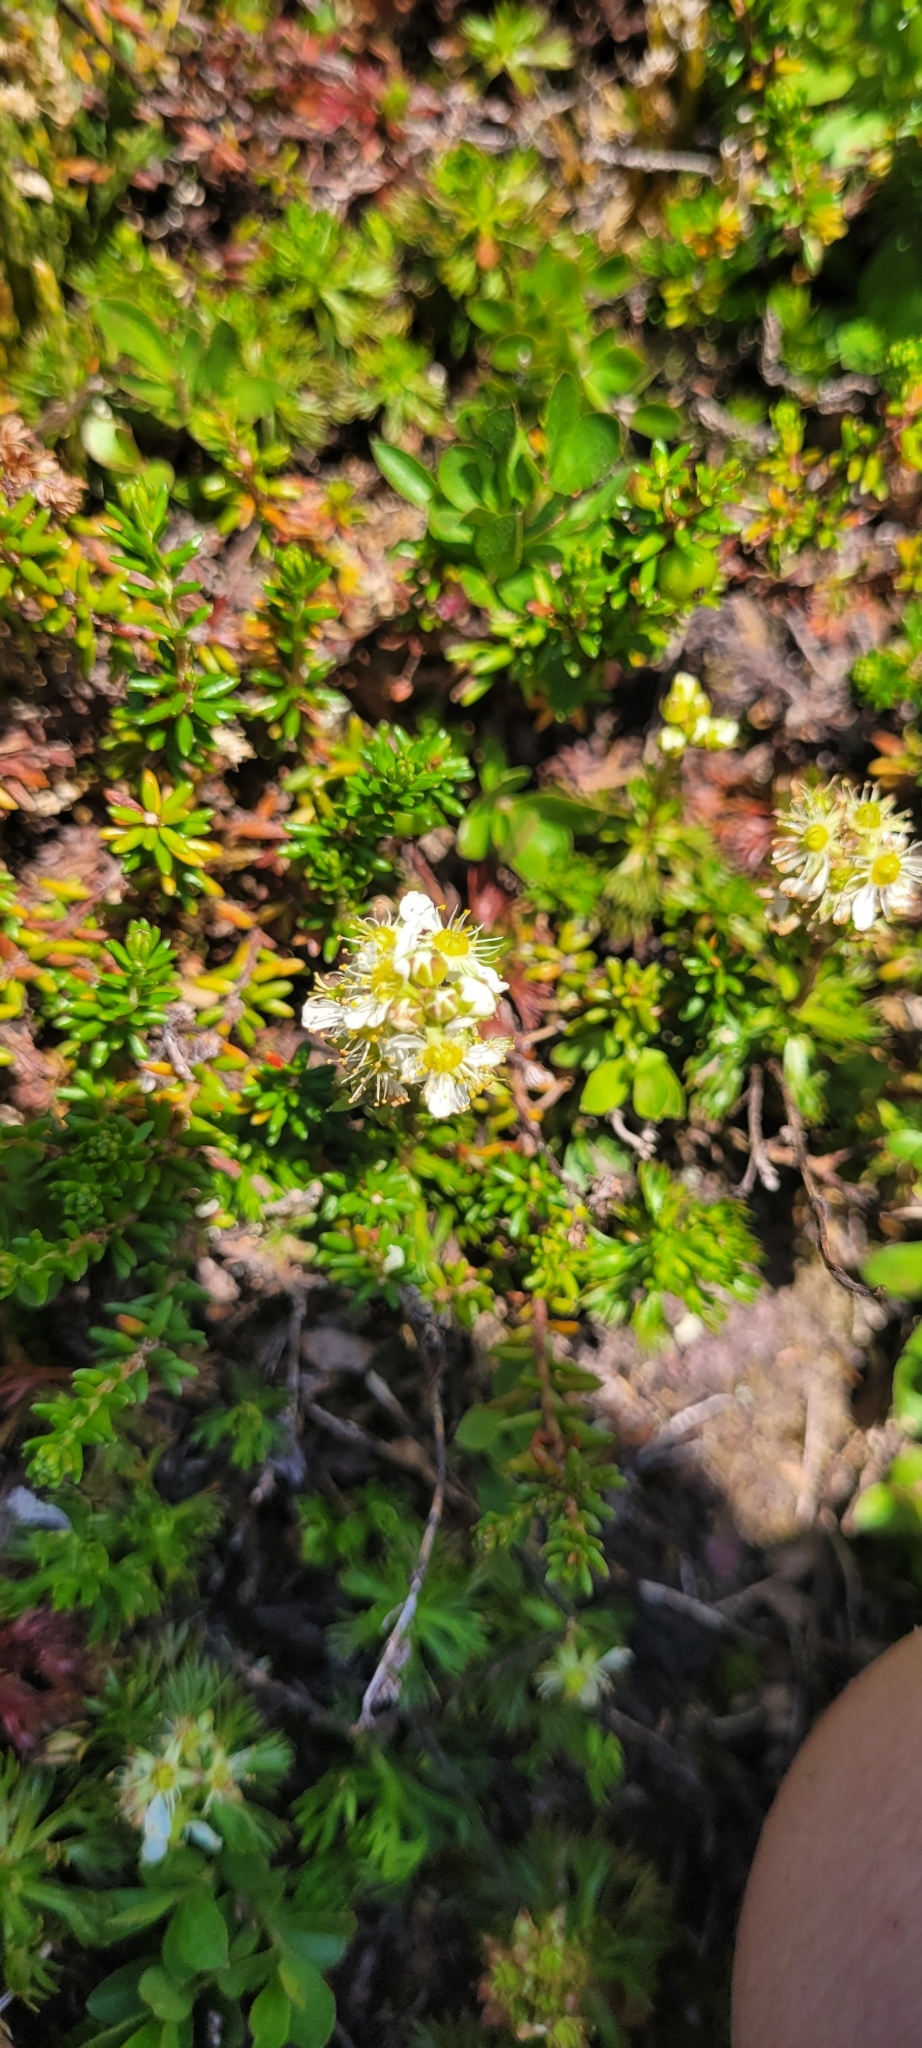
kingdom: Plantae
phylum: Tracheophyta
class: Magnoliopsida
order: Rosales
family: Rosaceae
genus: Luetkea
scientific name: Luetkea pectinata
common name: Partridgefoot
